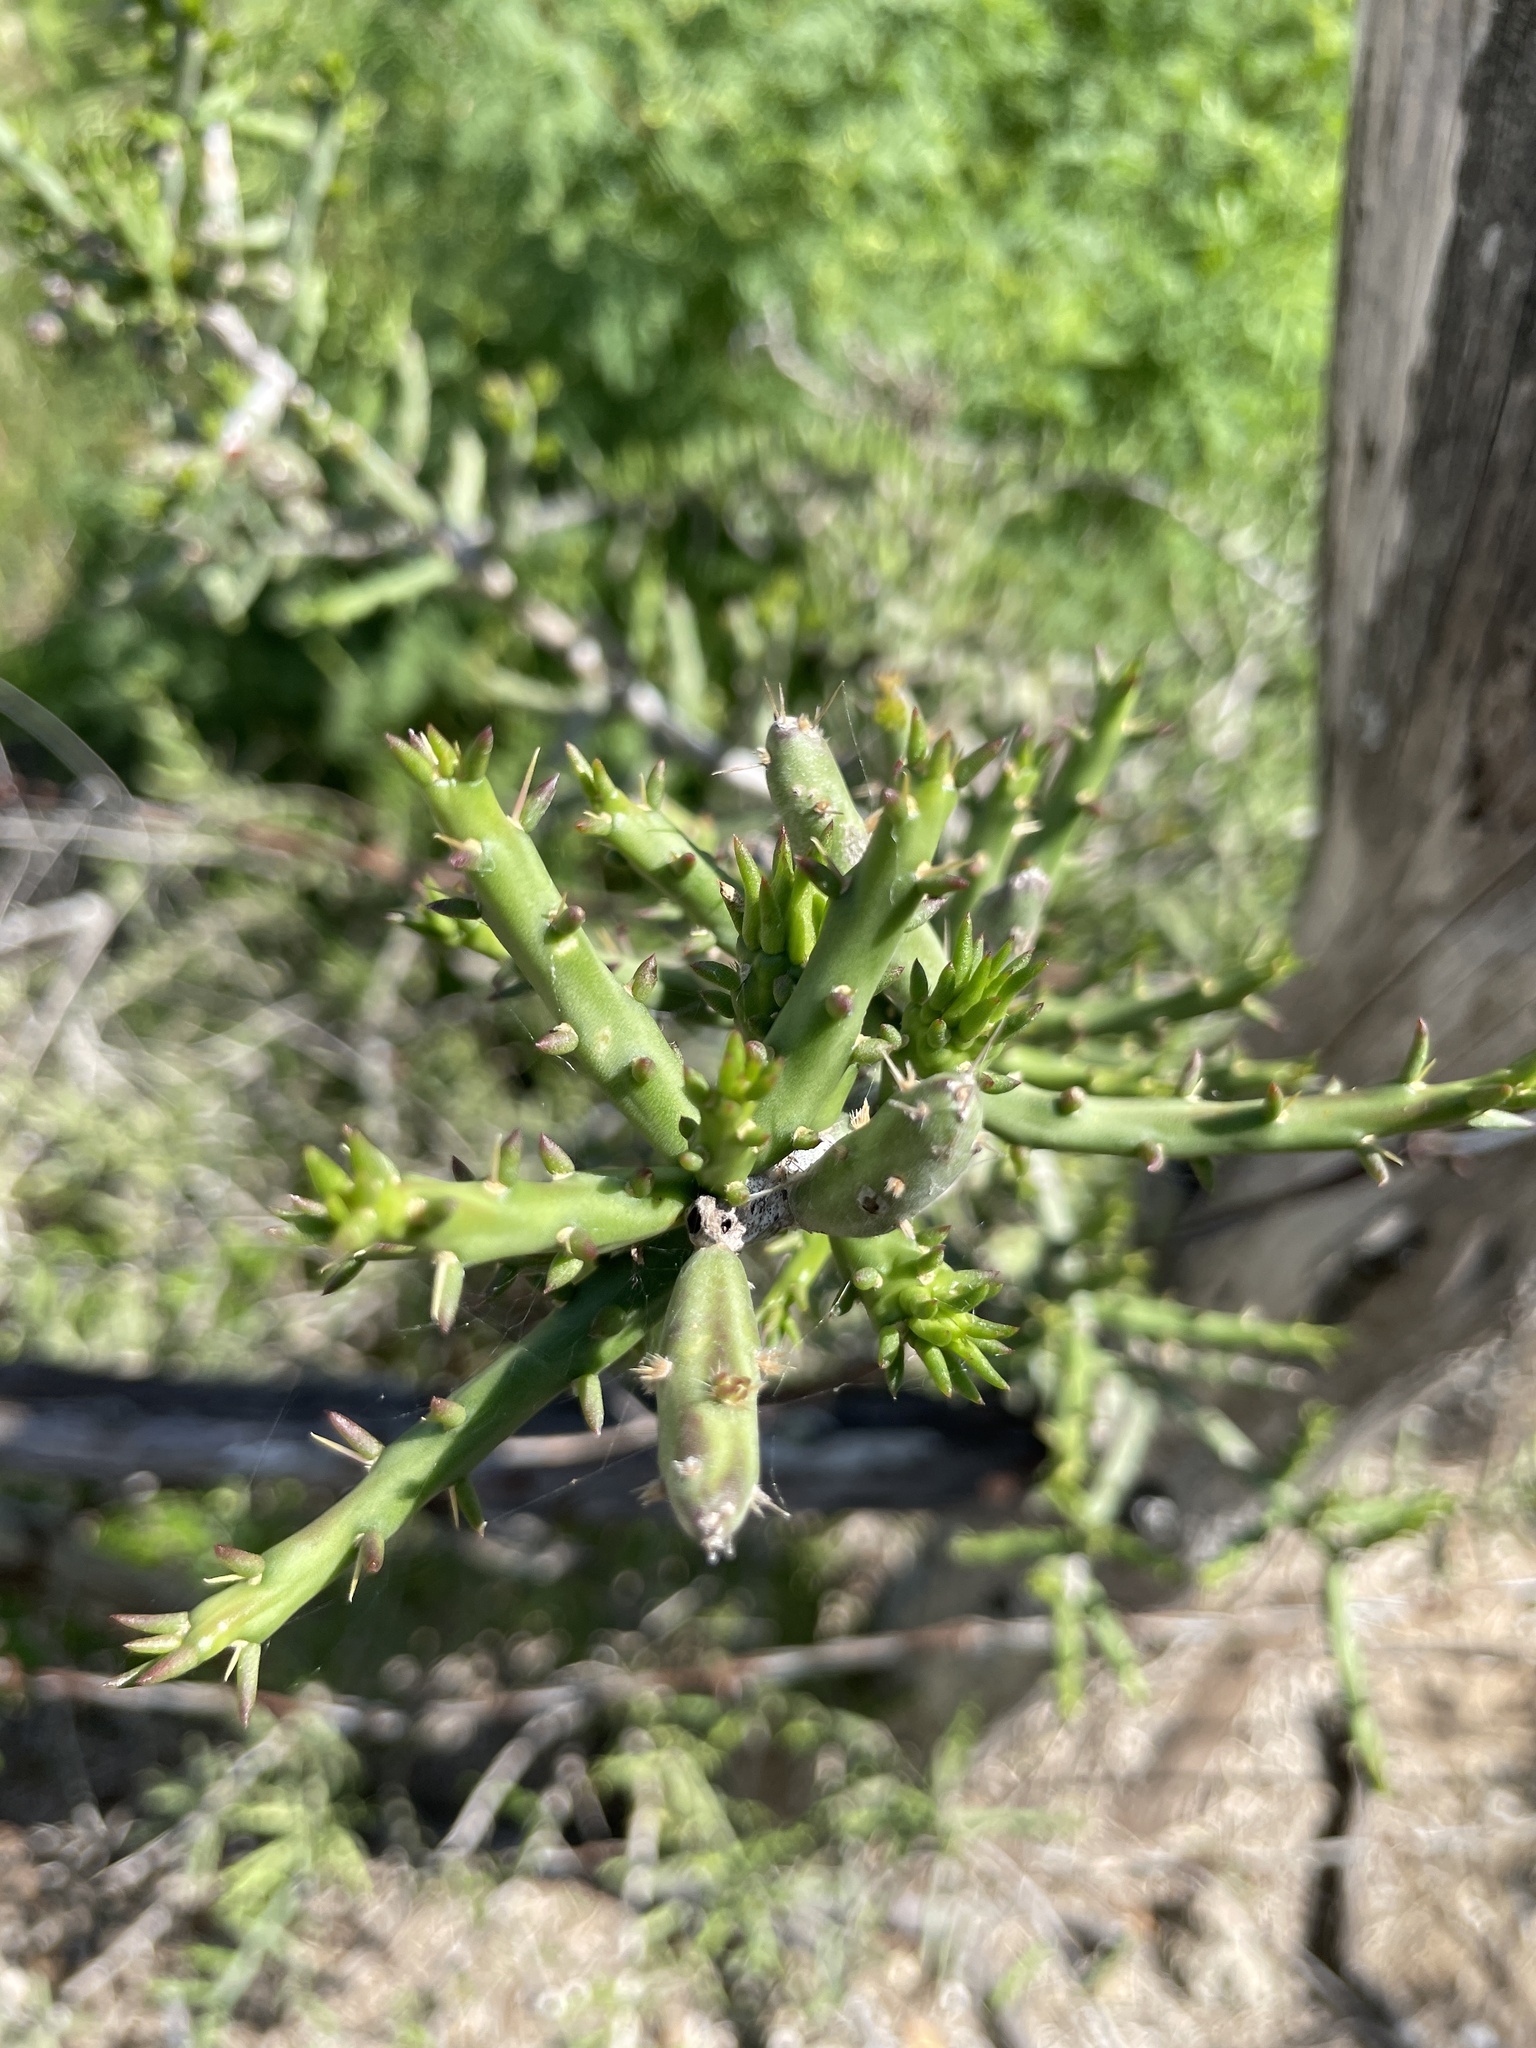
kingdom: Plantae
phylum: Tracheophyta
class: Magnoliopsida
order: Caryophyllales
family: Cactaceae
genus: Cylindropuntia
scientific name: Cylindropuntia leptocaulis
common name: Christmas cactus
